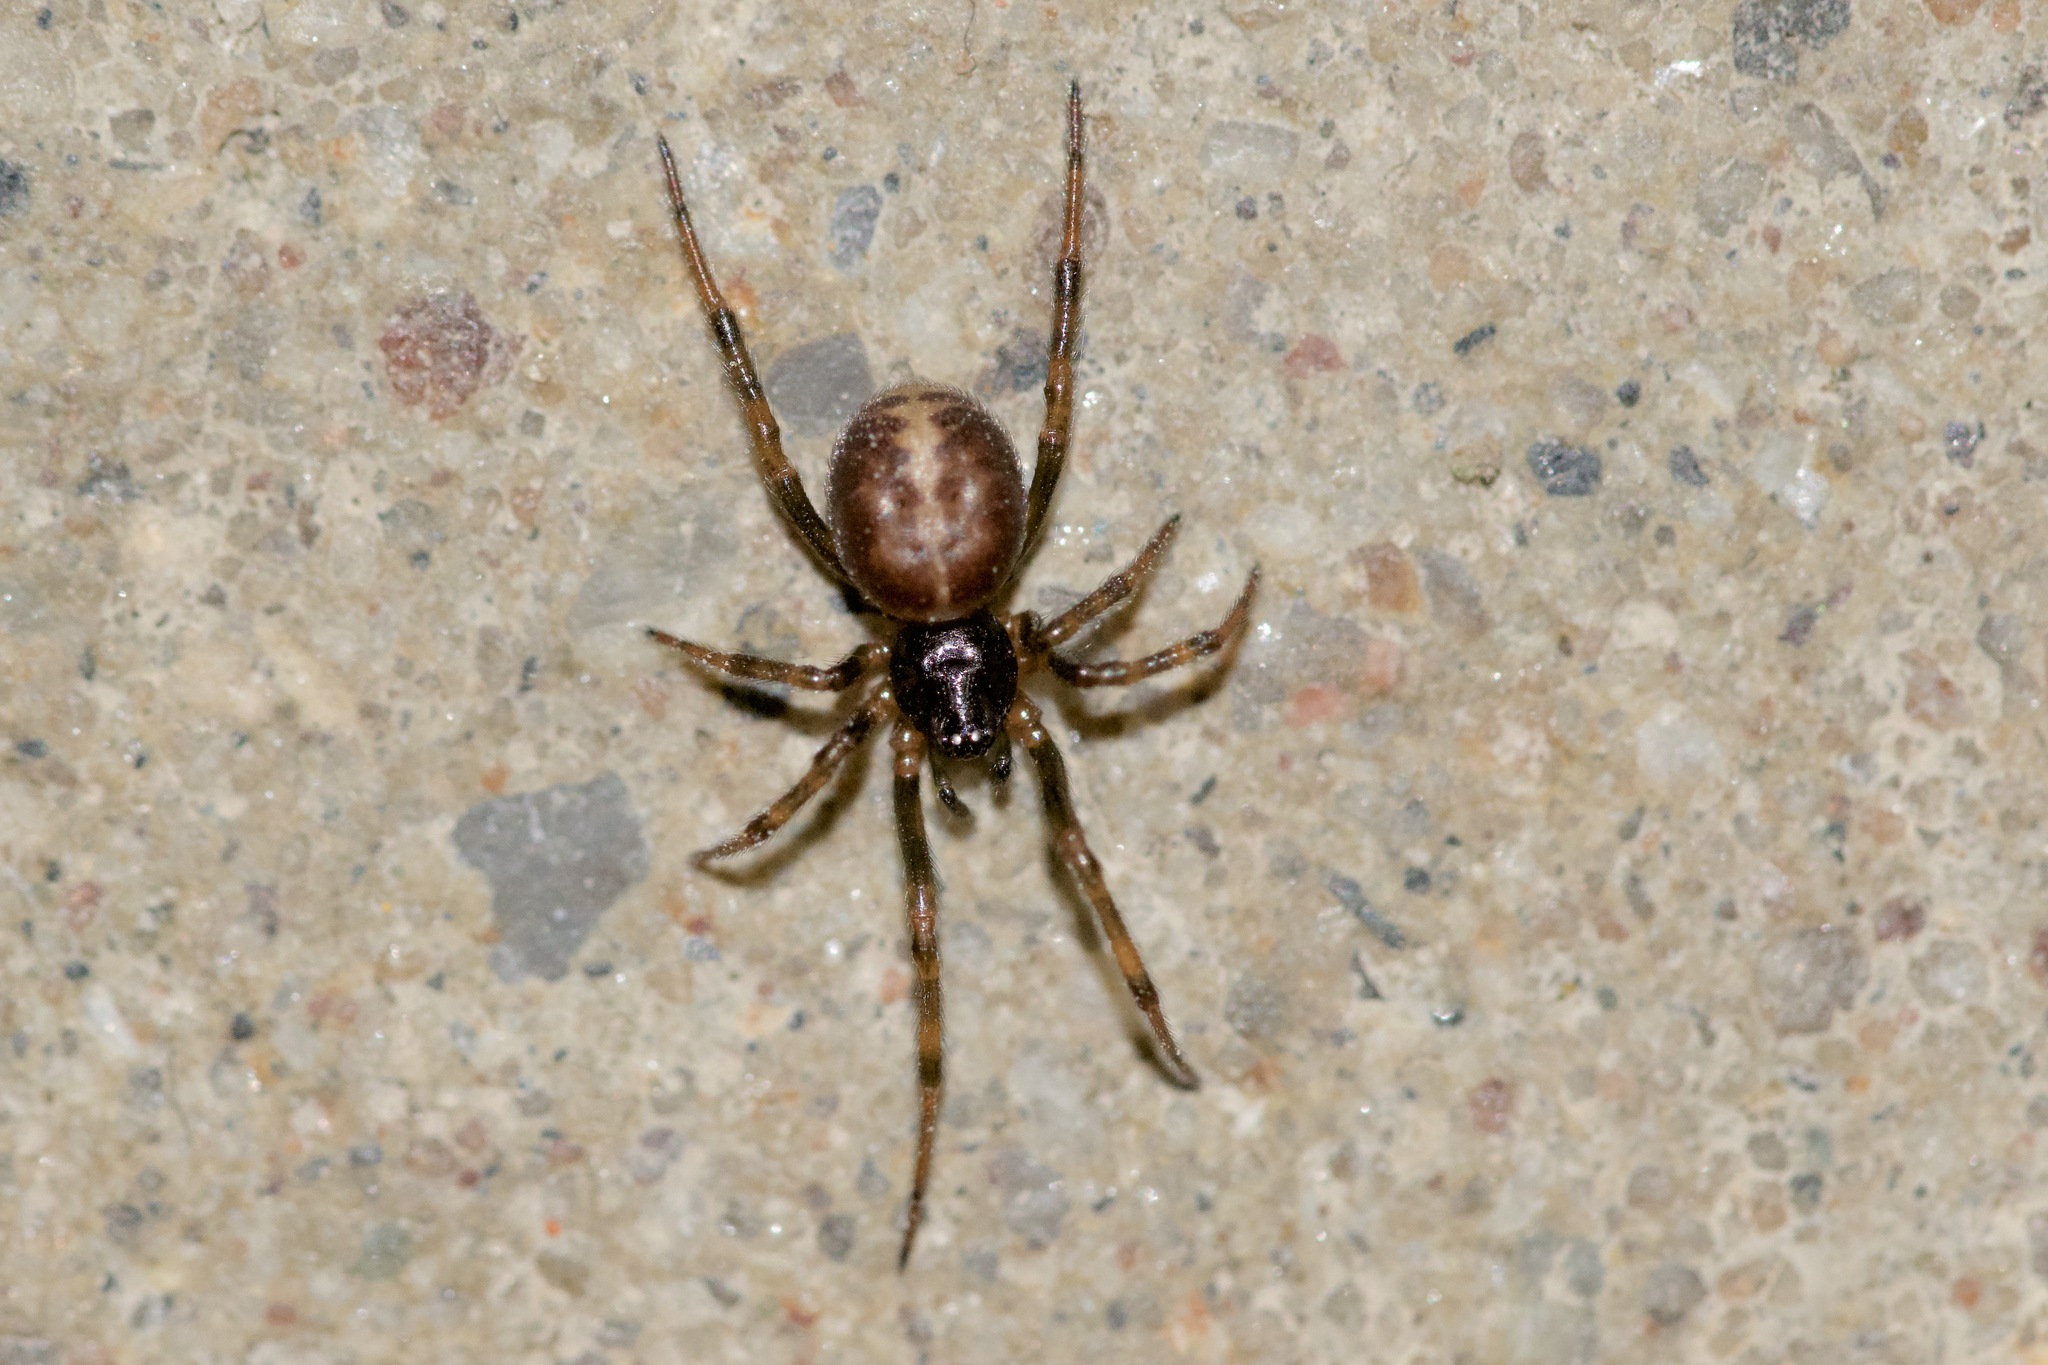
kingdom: Animalia
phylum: Arthropoda
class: Arachnida
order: Araneae
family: Theridiidae
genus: Steatoda
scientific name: Steatoda bipunctata
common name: False widow
